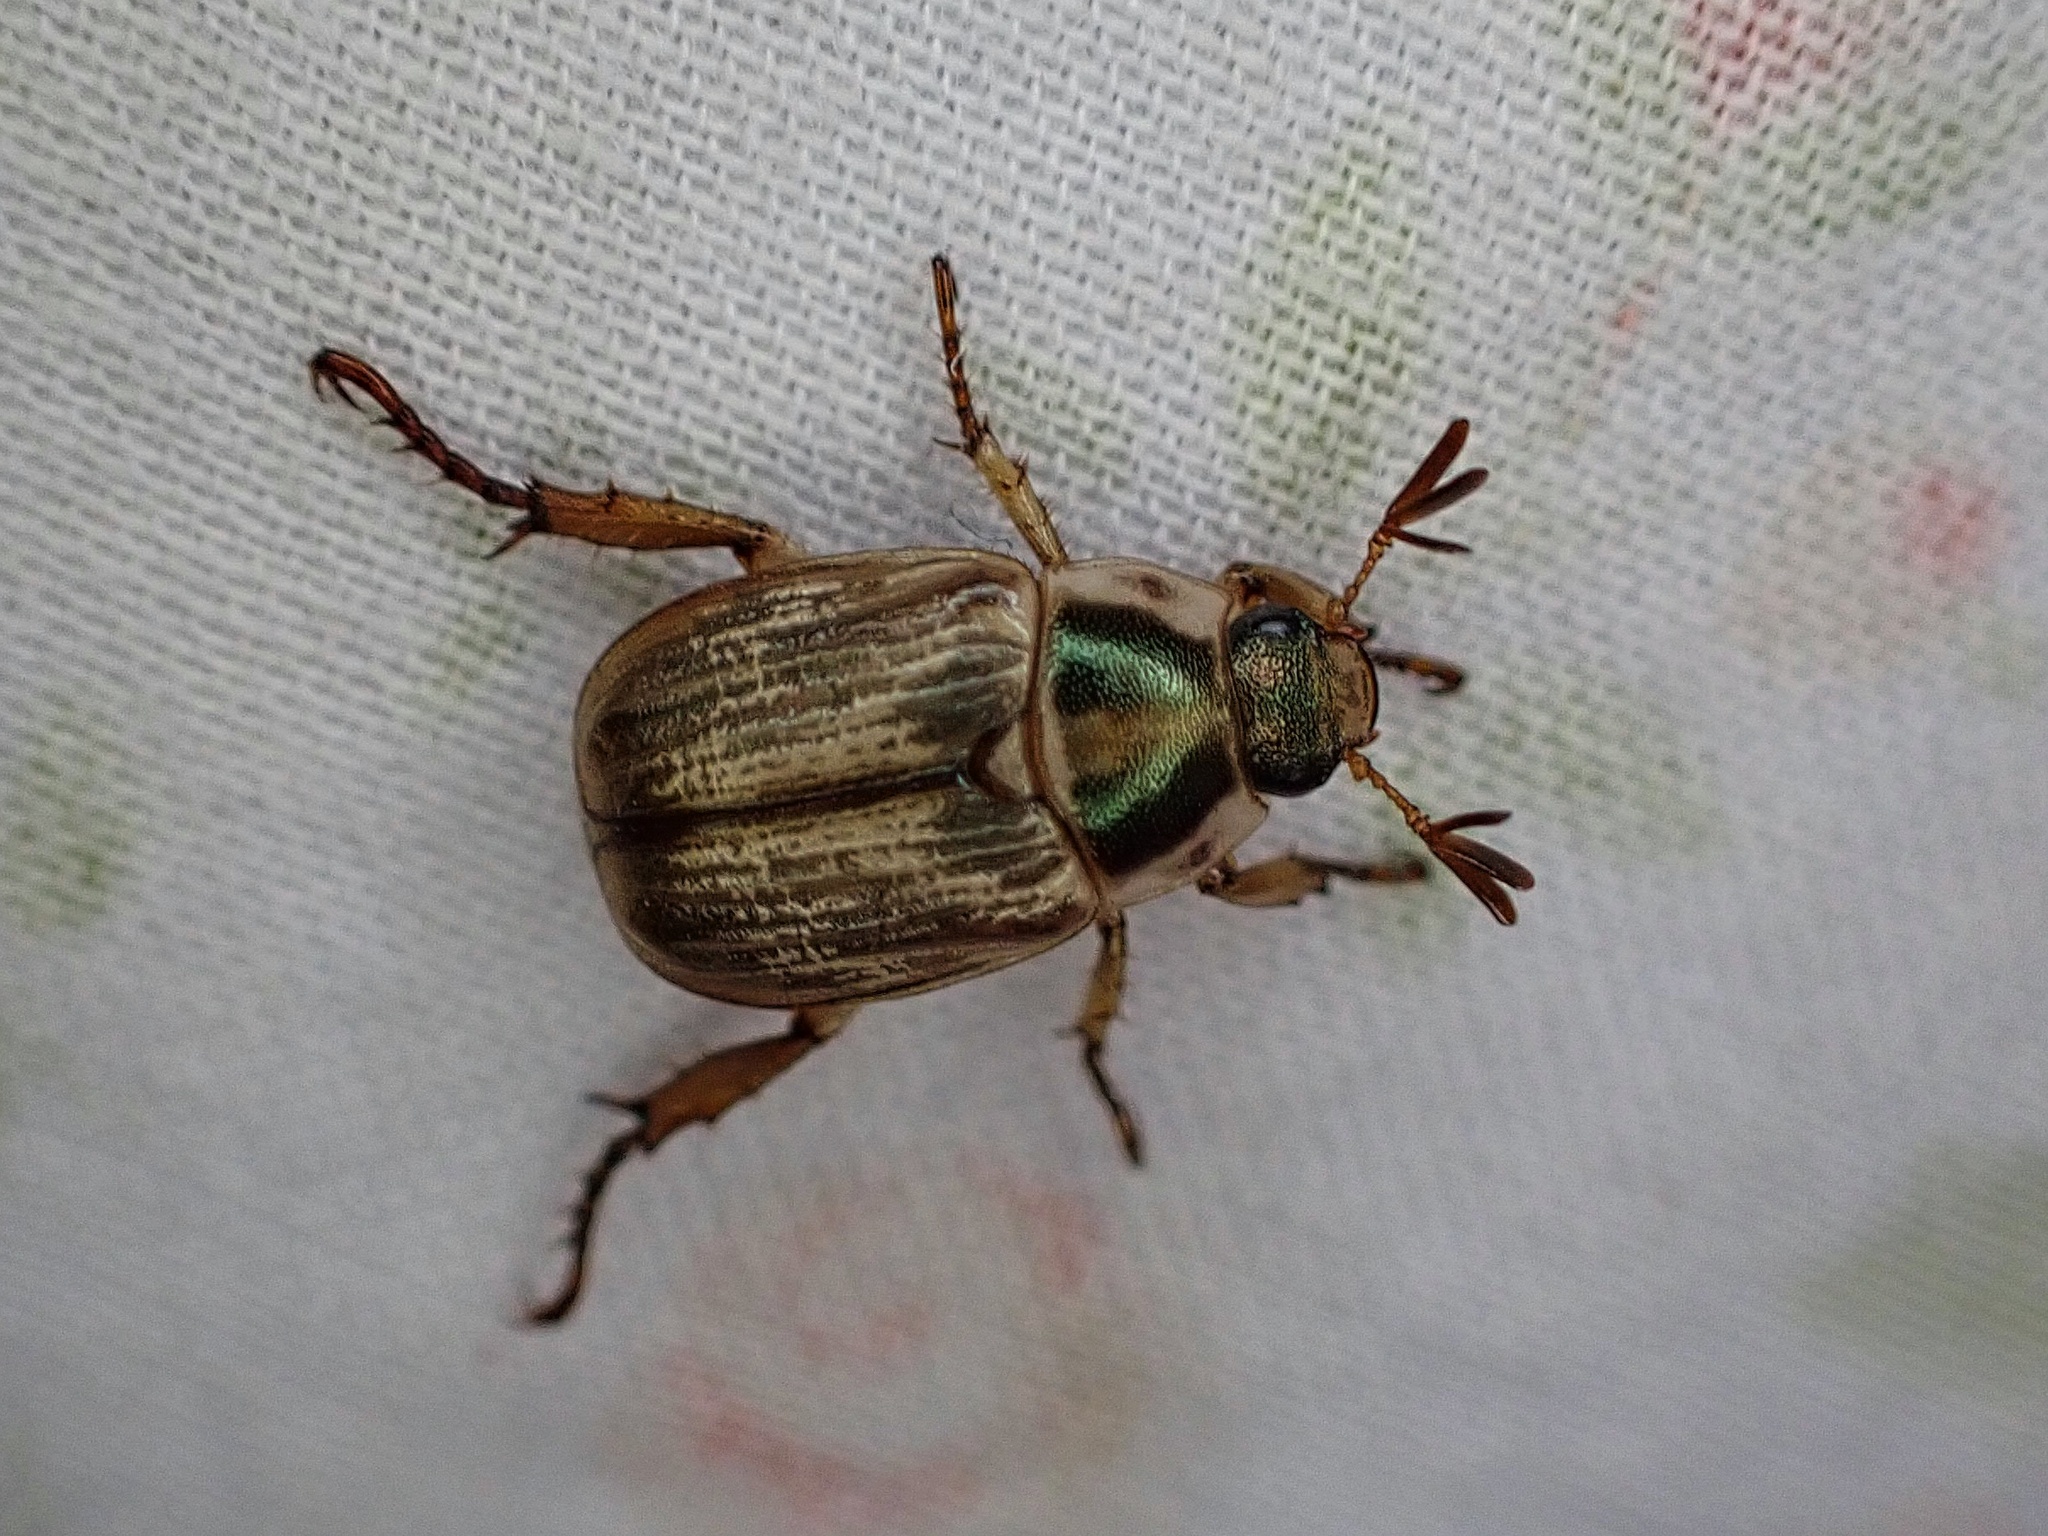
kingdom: Animalia
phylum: Arthropoda
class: Insecta
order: Coleoptera
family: Scarabaeidae
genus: Exomala
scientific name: Exomala orientalis
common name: Oriental beetle
